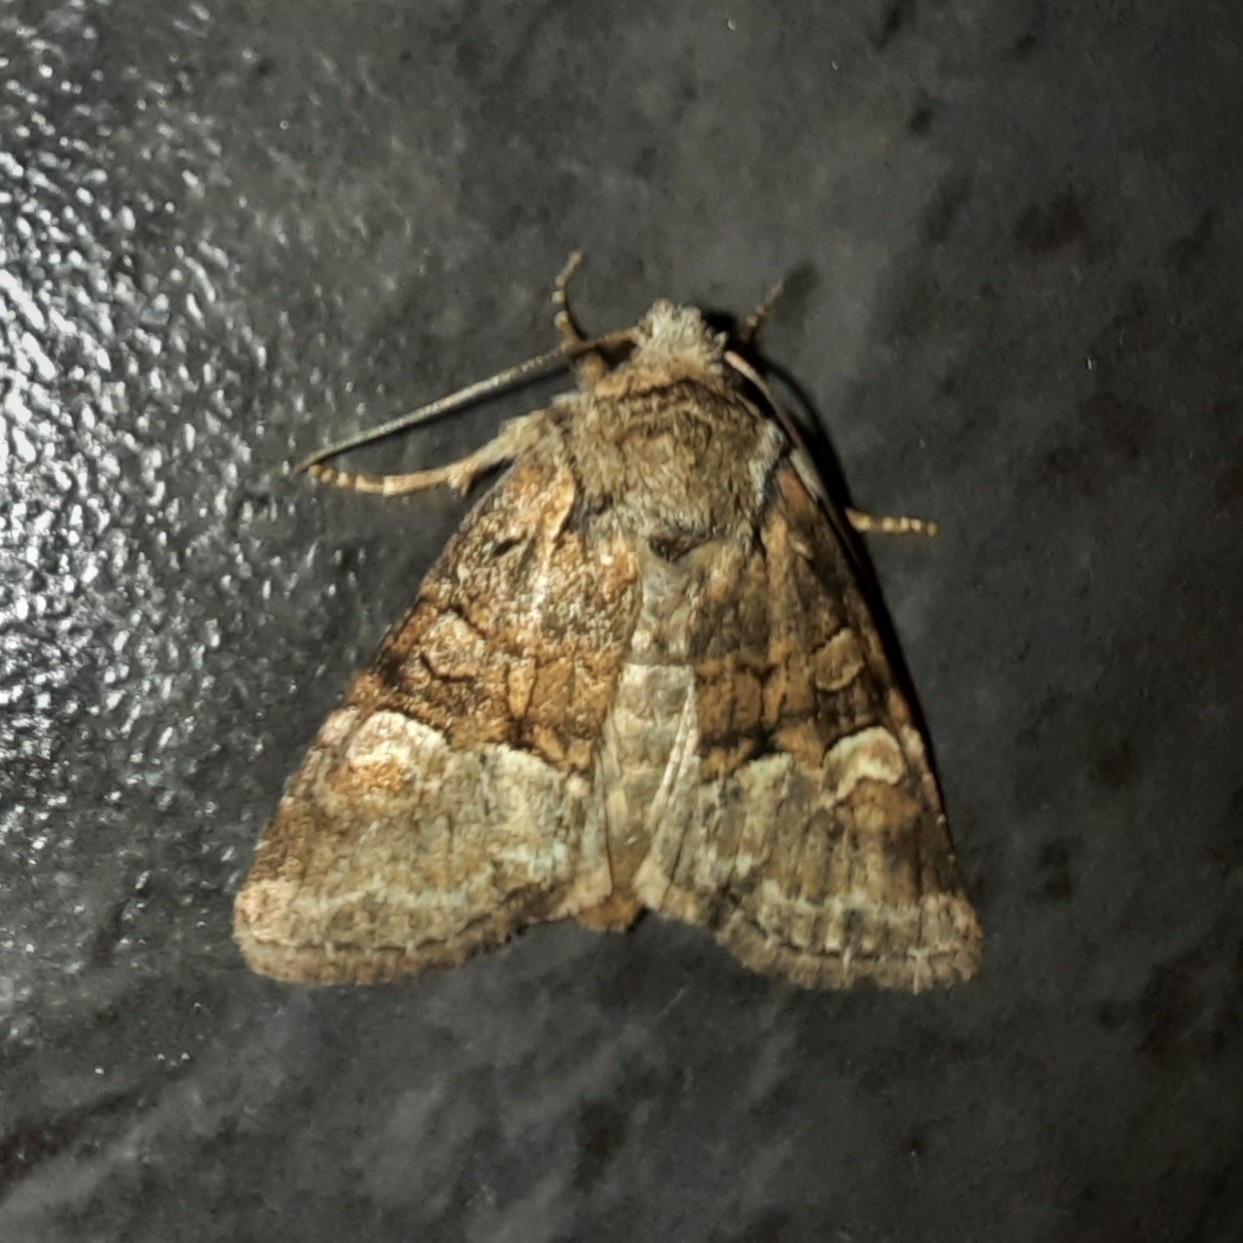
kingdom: Animalia
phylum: Arthropoda
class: Insecta
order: Lepidoptera
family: Noctuidae
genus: Brachylomia
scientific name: Brachylomia viminalis
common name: Minor shoulder-knot
